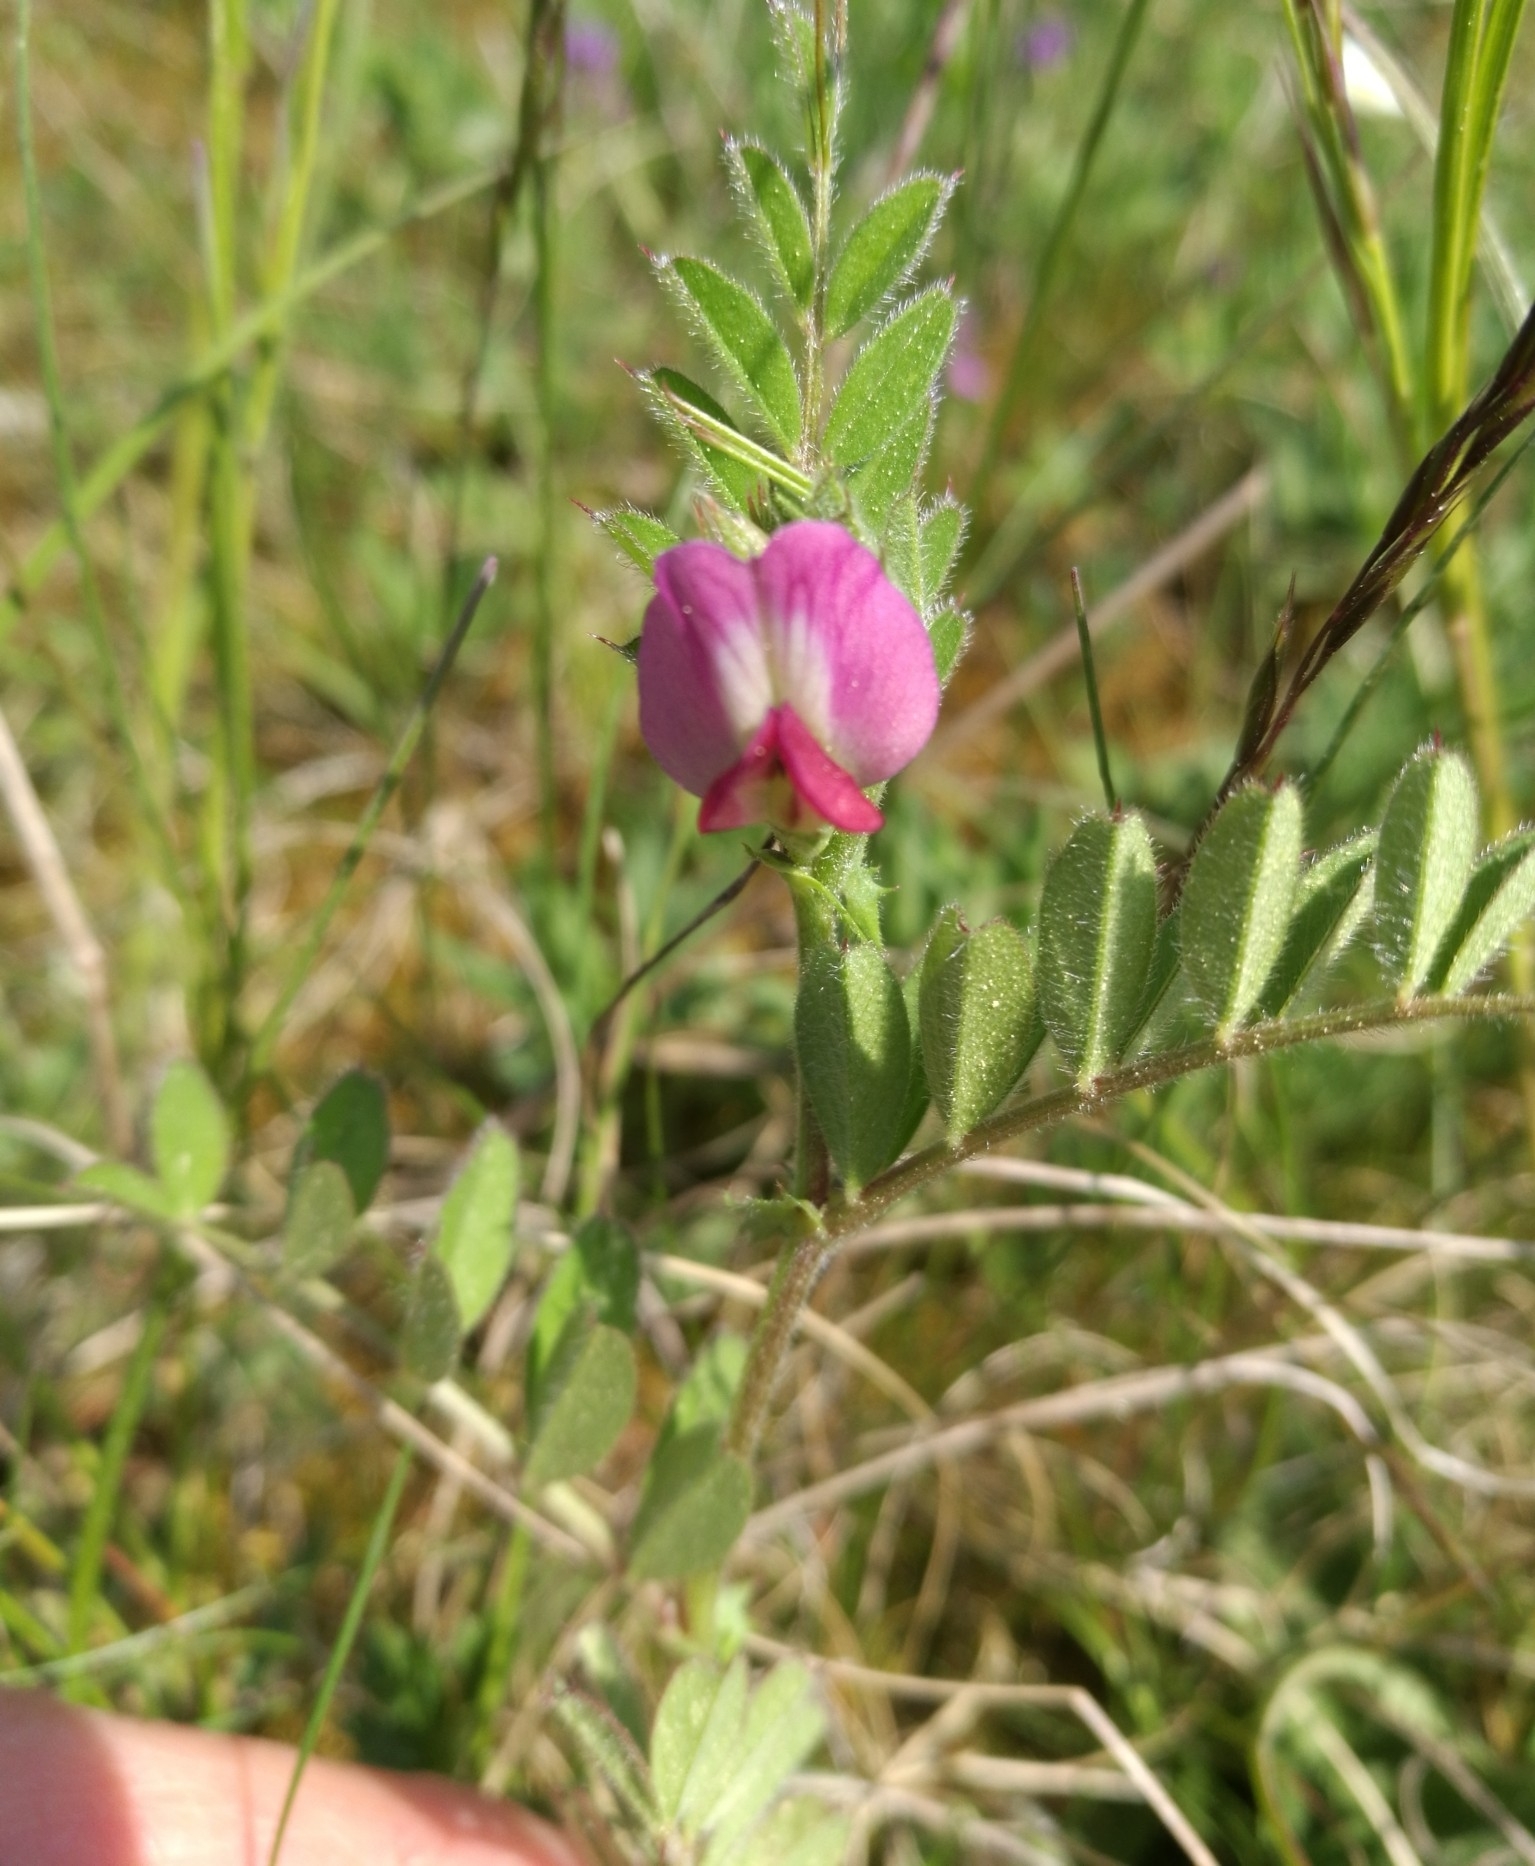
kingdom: Plantae
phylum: Tracheophyta
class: Magnoliopsida
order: Fabales
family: Fabaceae
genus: Vicia
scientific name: Vicia sativa
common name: Garden vetch
